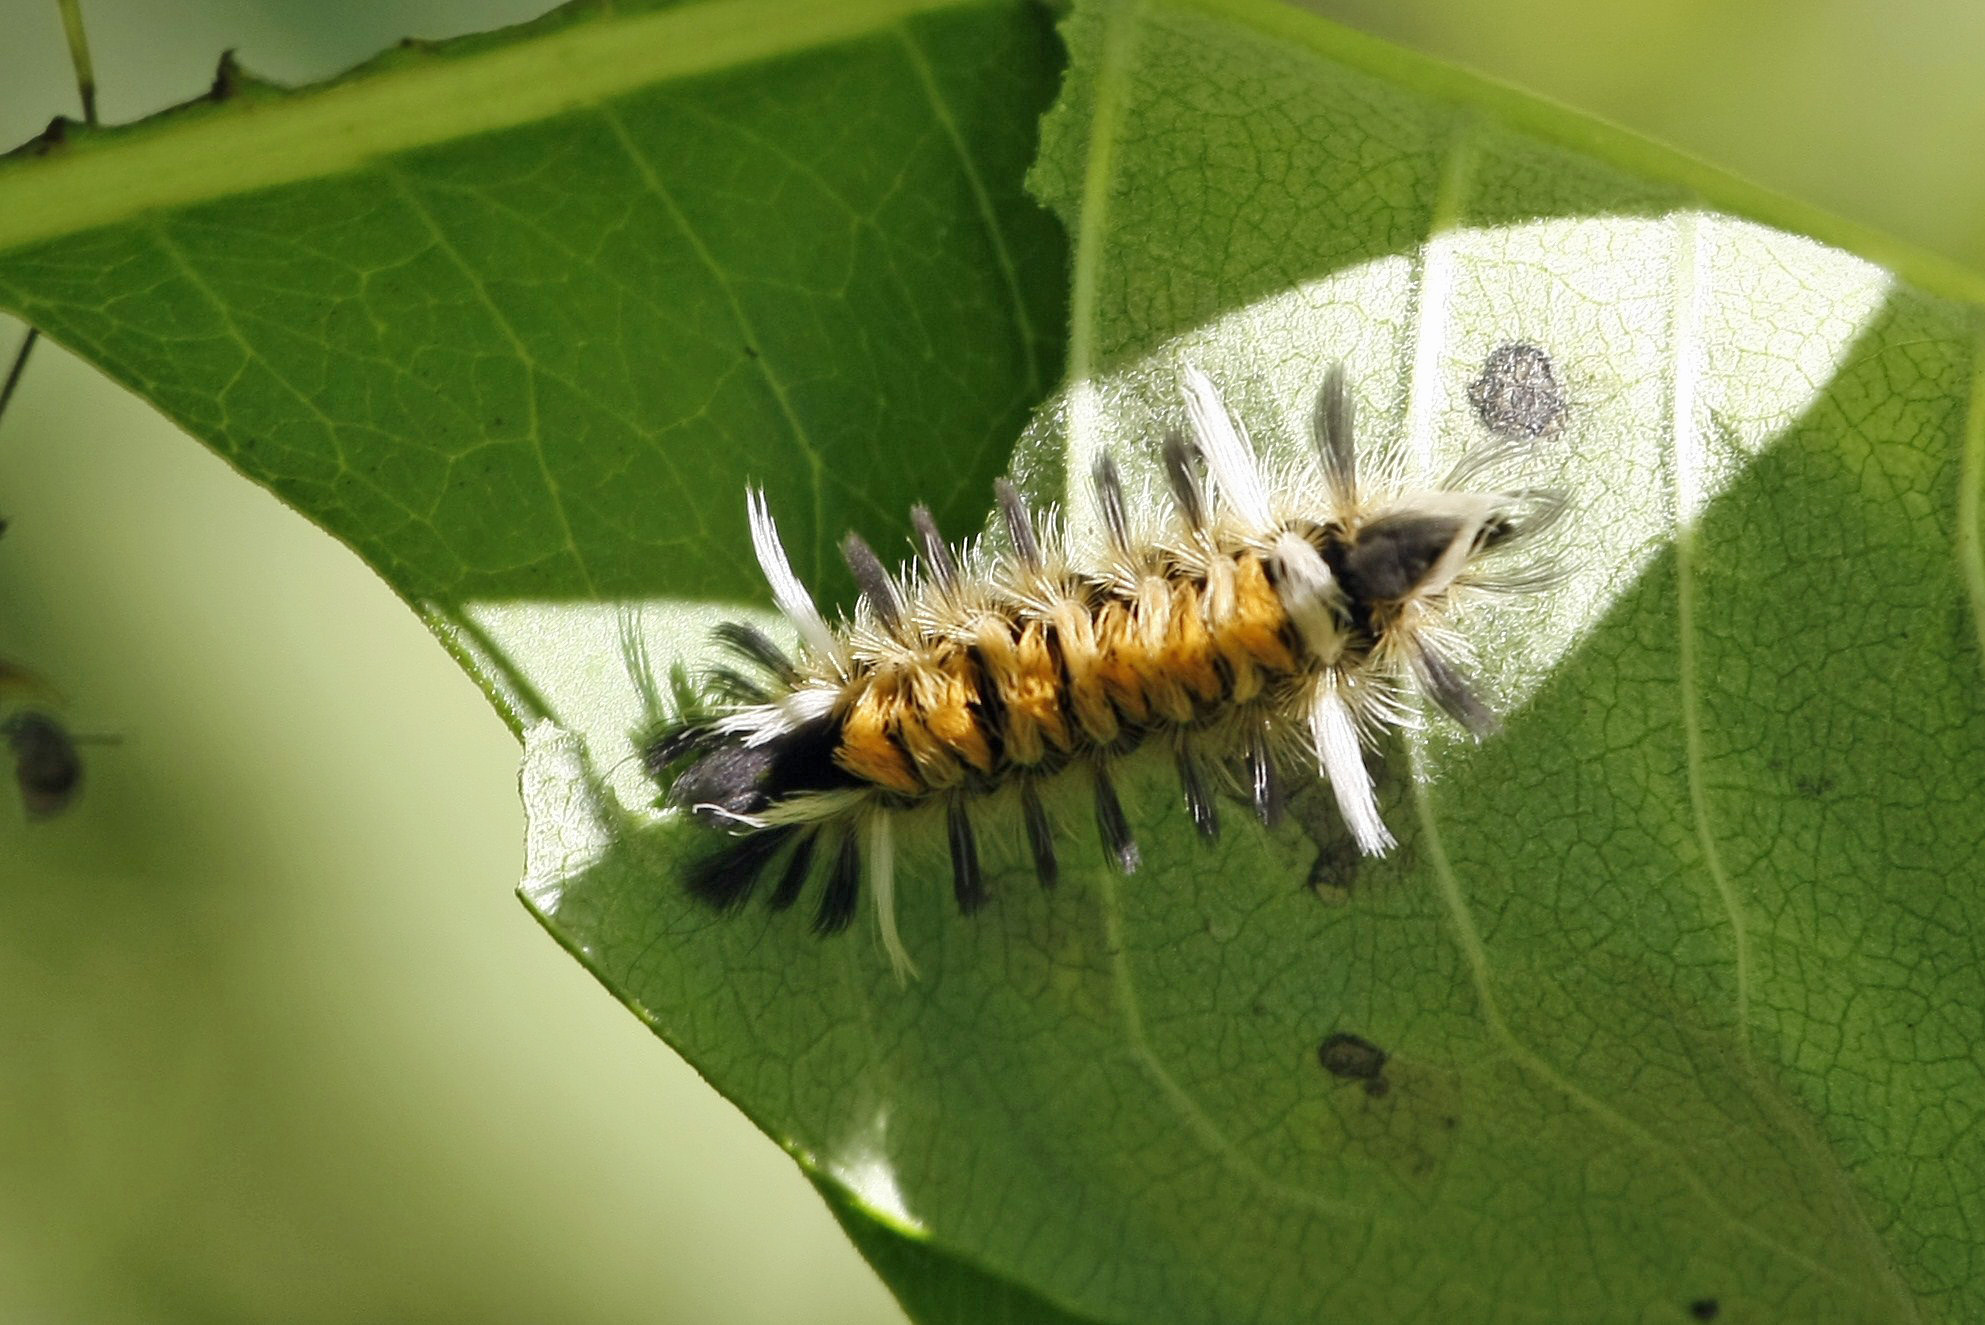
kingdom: Animalia
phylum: Arthropoda
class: Insecta
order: Lepidoptera
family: Erebidae
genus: Euchaetes
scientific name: Euchaetes egle
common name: Milkweed tussock moth
